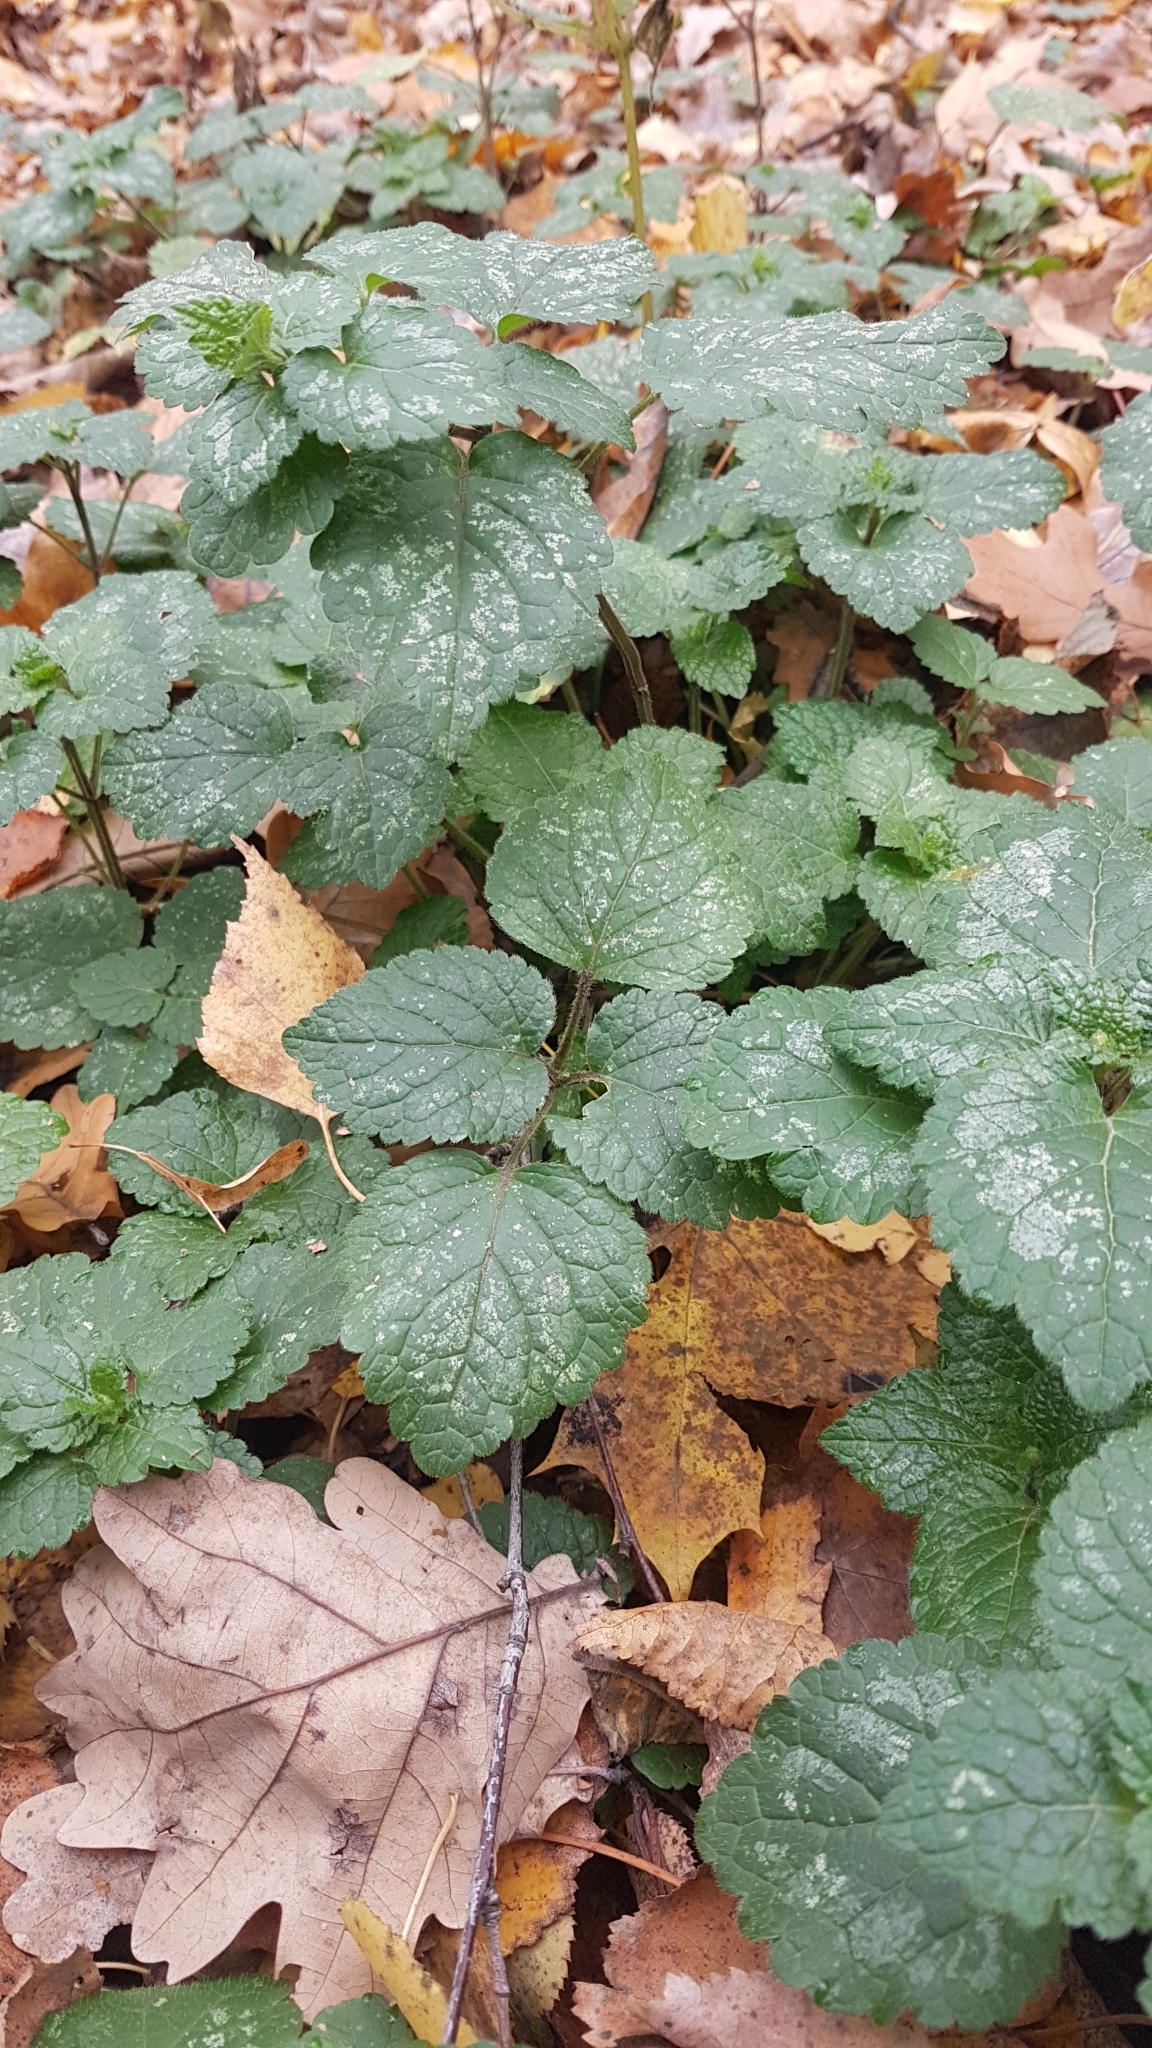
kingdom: Plantae
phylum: Tracheophyta
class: Magnoliopsida
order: Lamiales
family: Lamiaceae
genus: Lamium
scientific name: Lamium galeobdolon
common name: Yellow archangel
